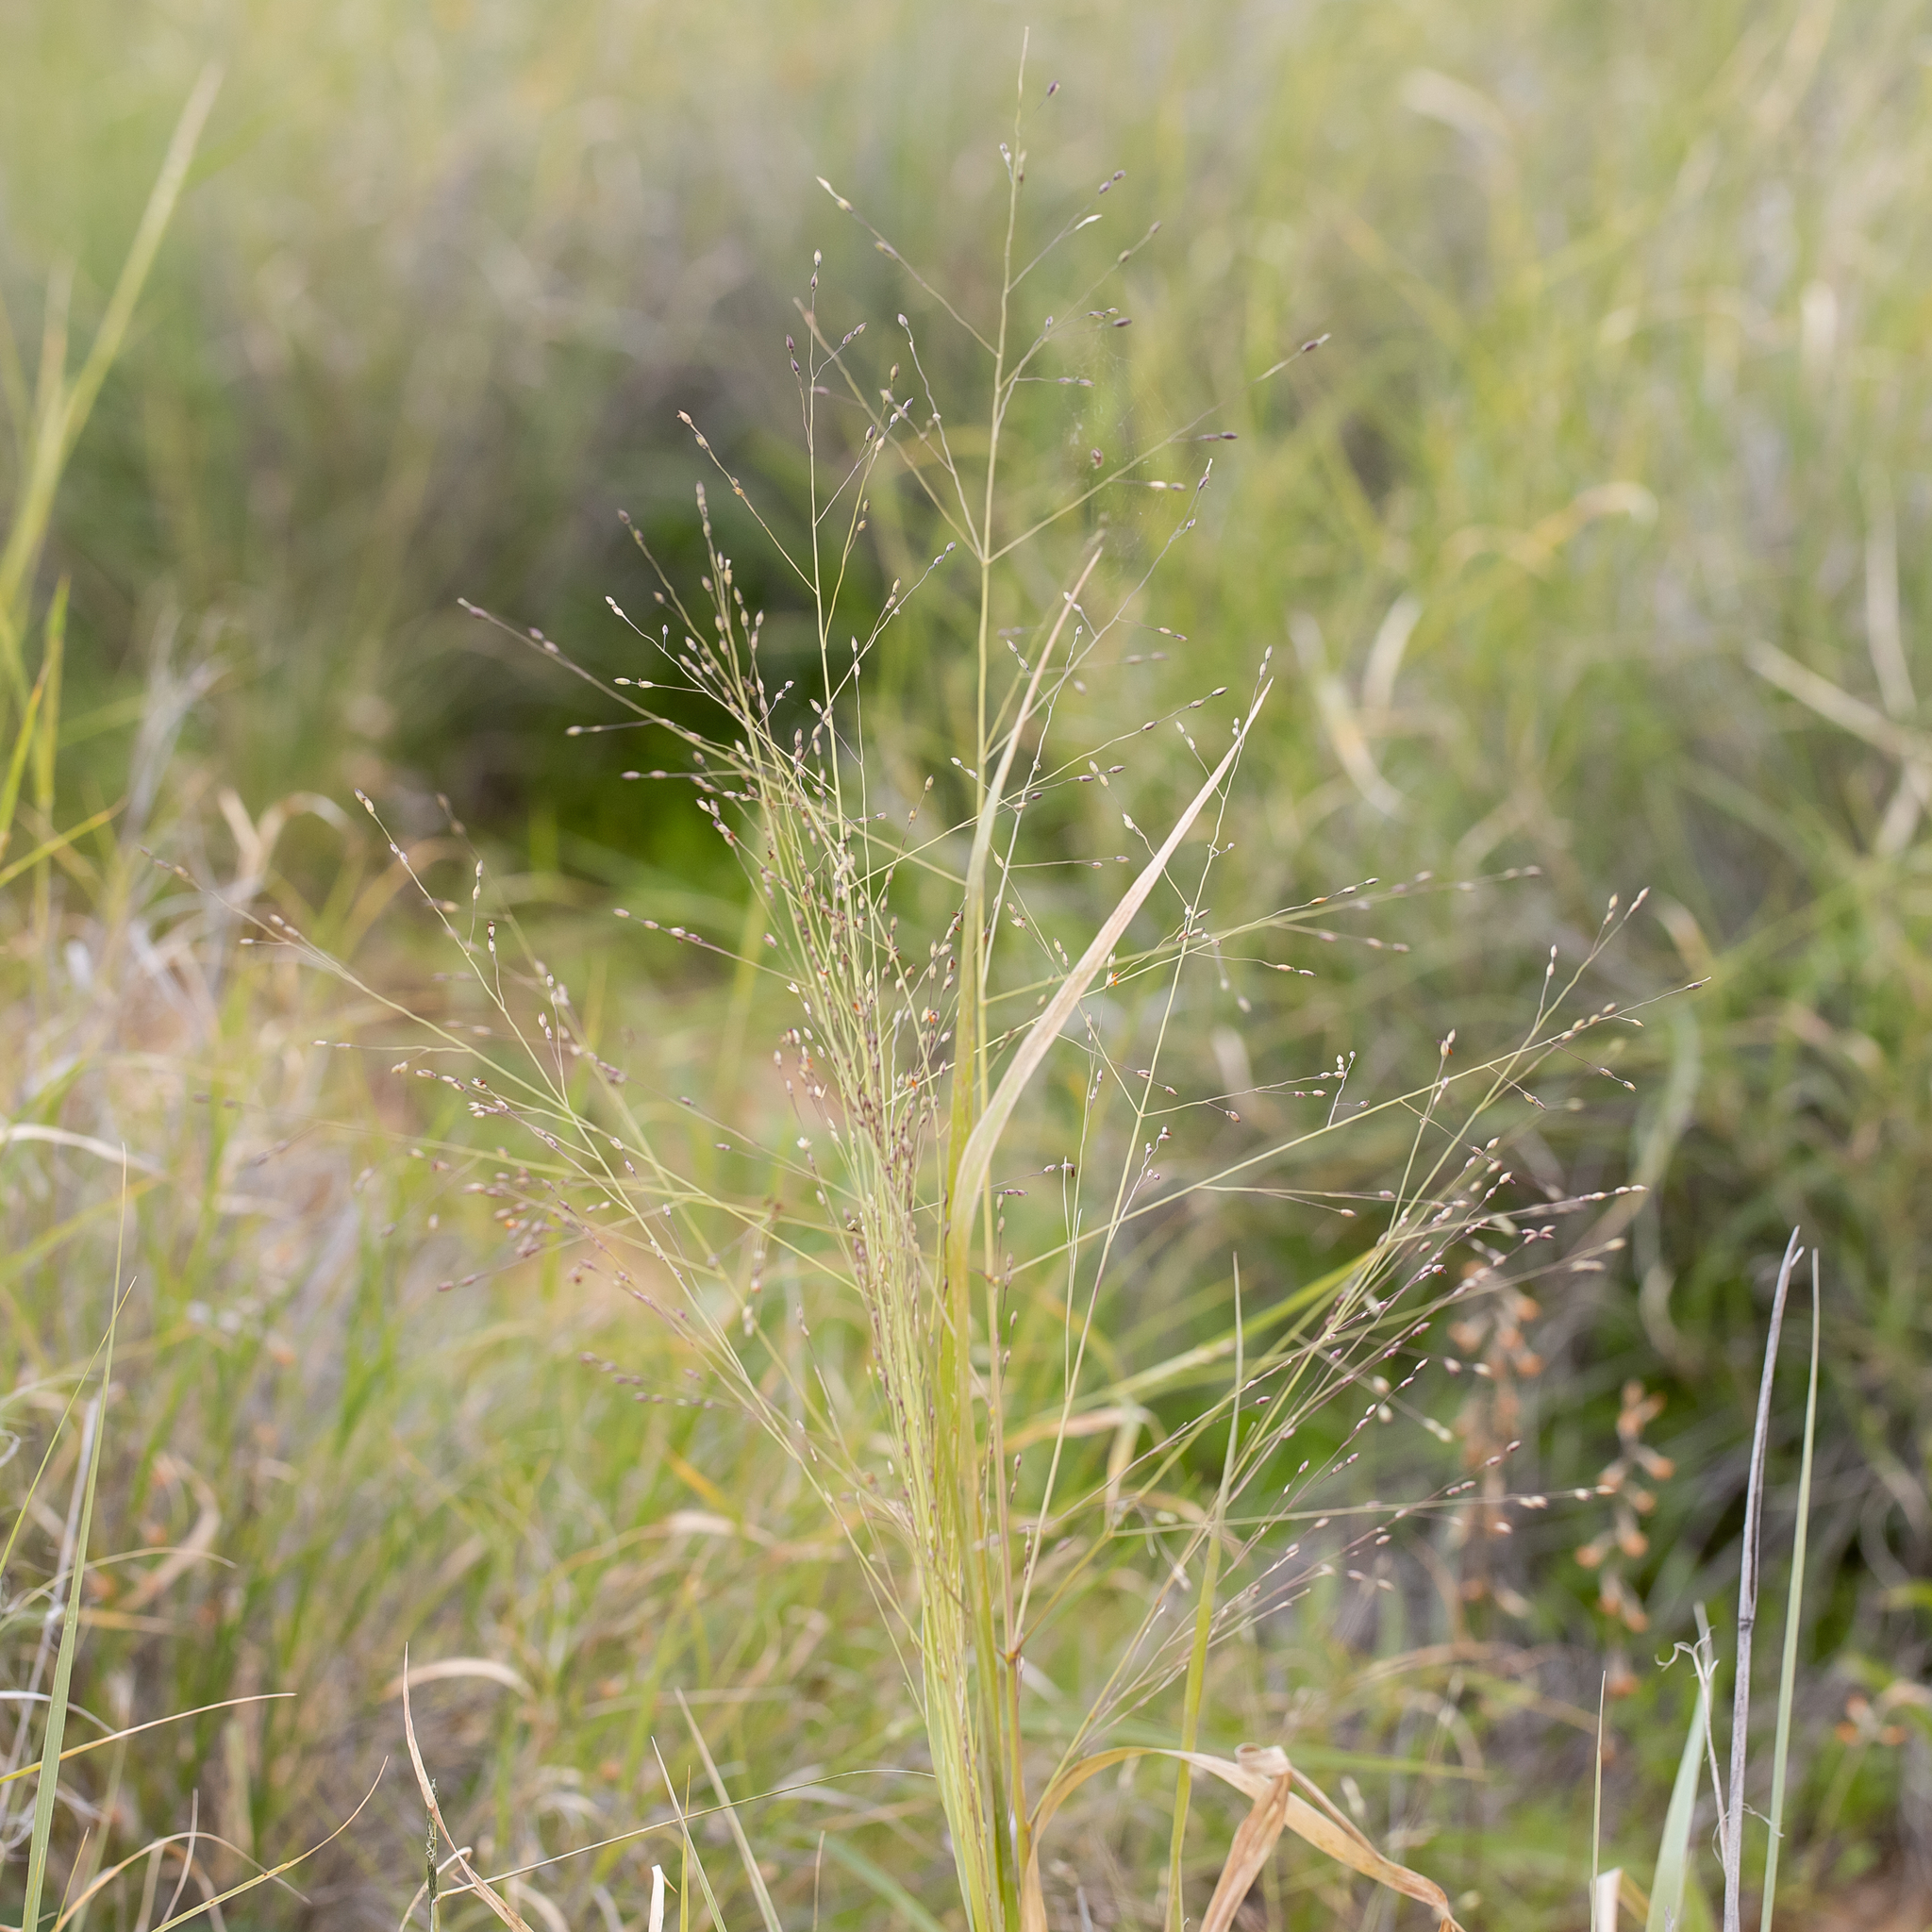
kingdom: Plantae
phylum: Tracheophyta
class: Liliopsida
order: Poales
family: Poaceae
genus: Panicum
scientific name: Panicum decompositum
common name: Australian millet
